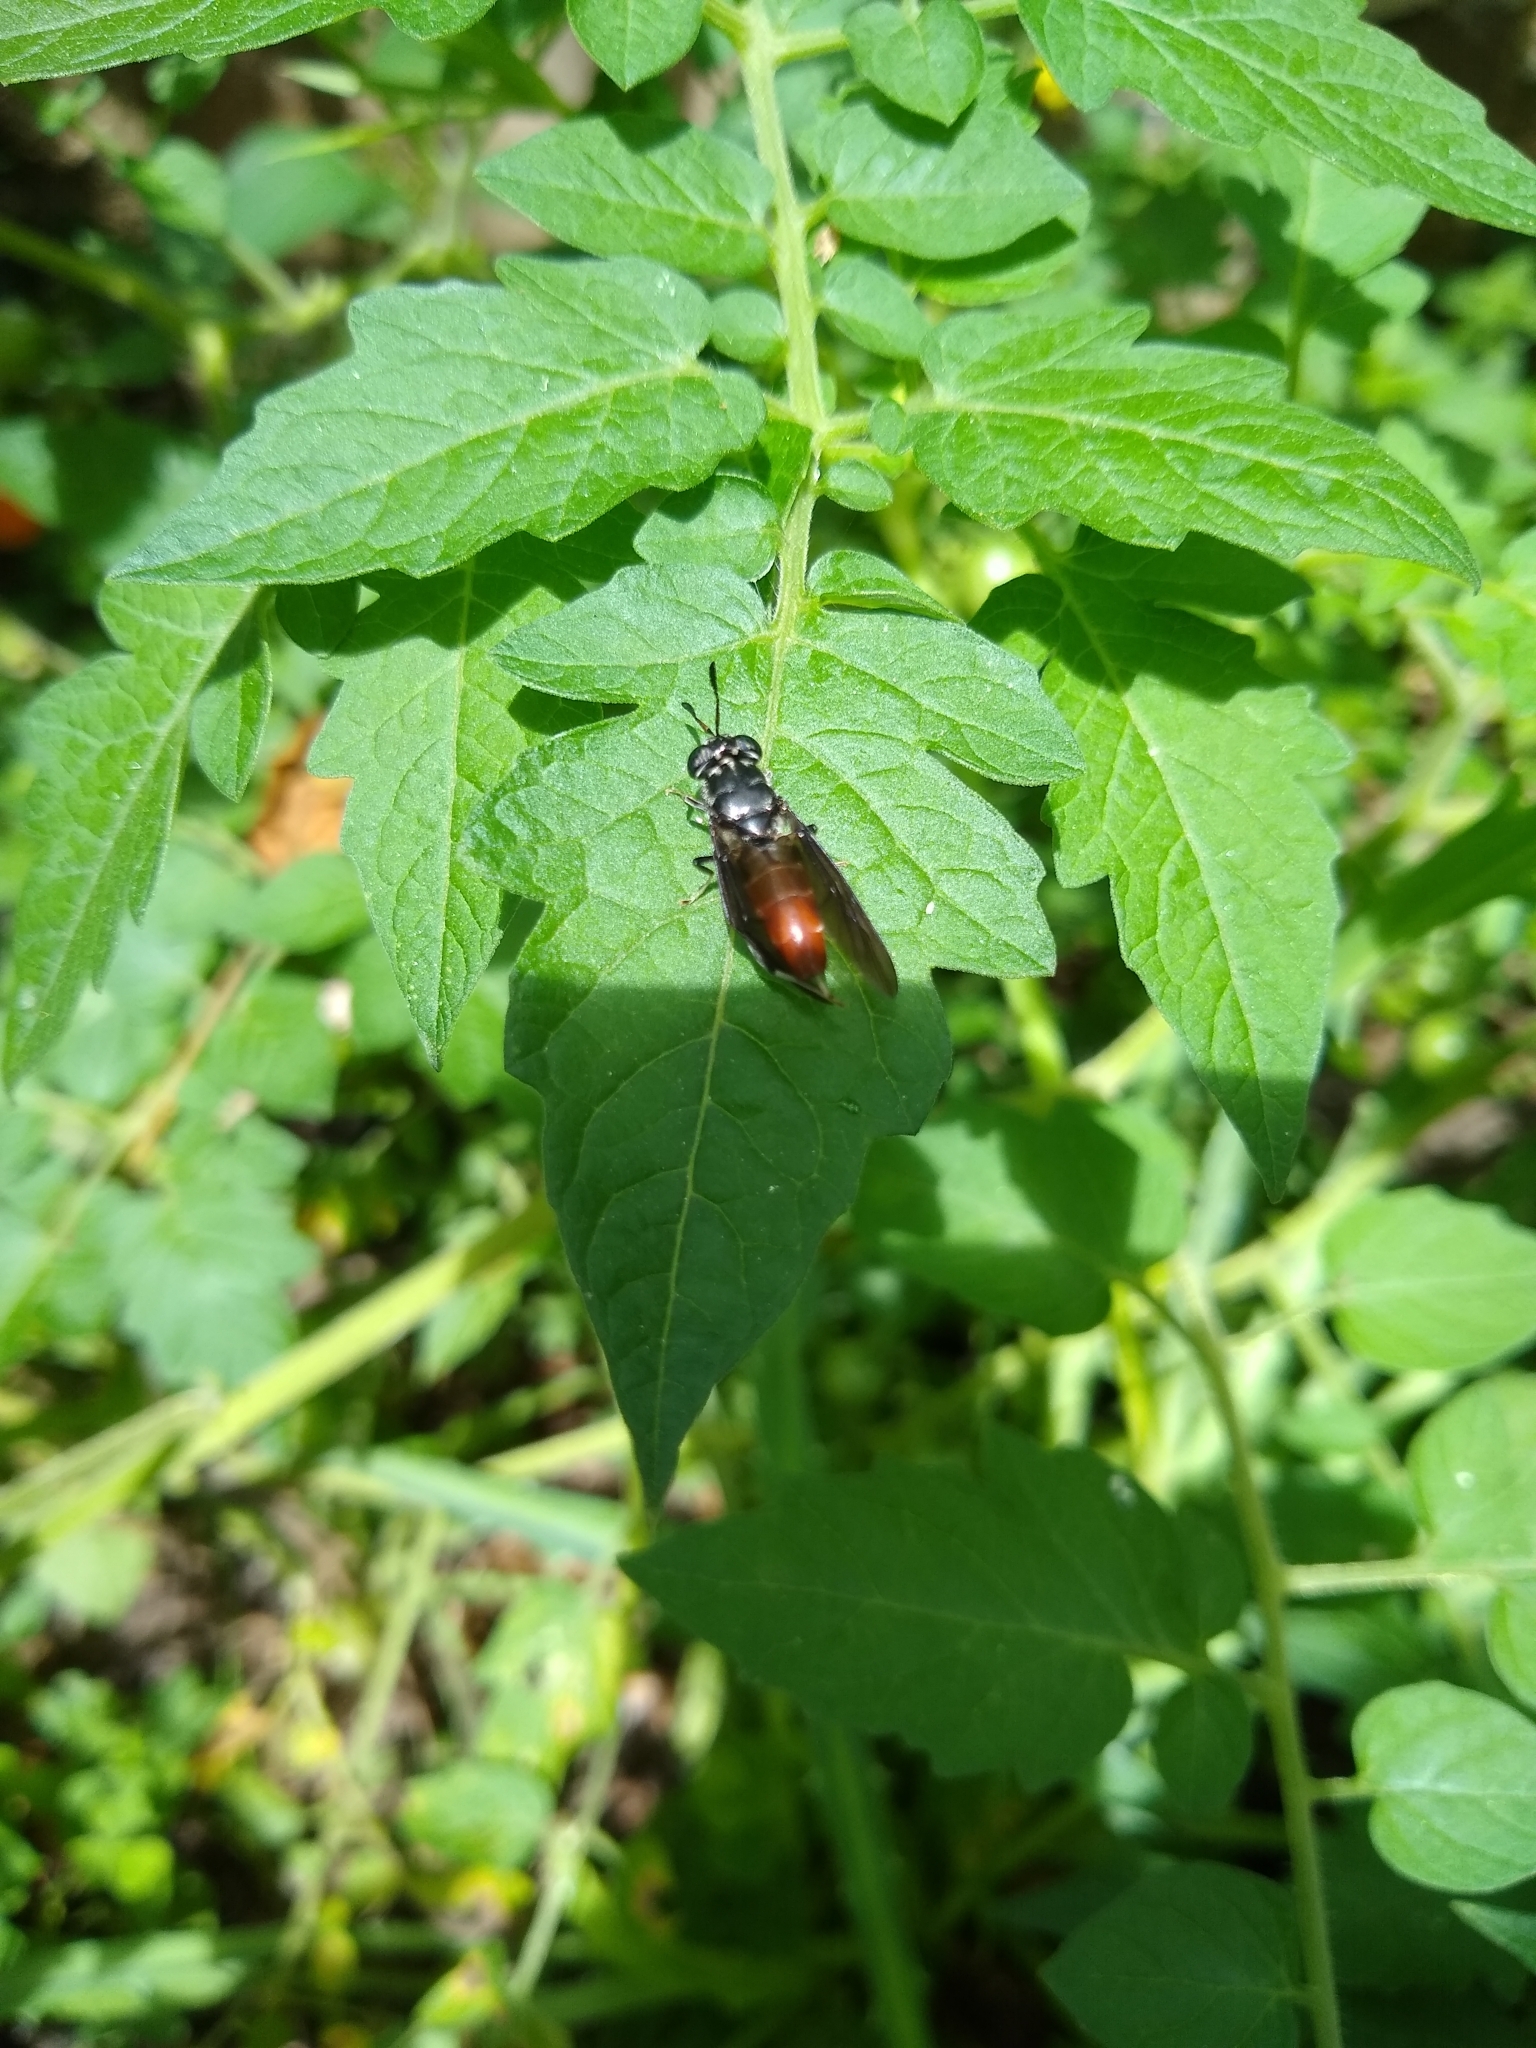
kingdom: Animalia
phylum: Arthropoda
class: Insecta
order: Diptera
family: Stratiomyidae
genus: Hermetia
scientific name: Hermetia illucens
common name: Black soldier fly
